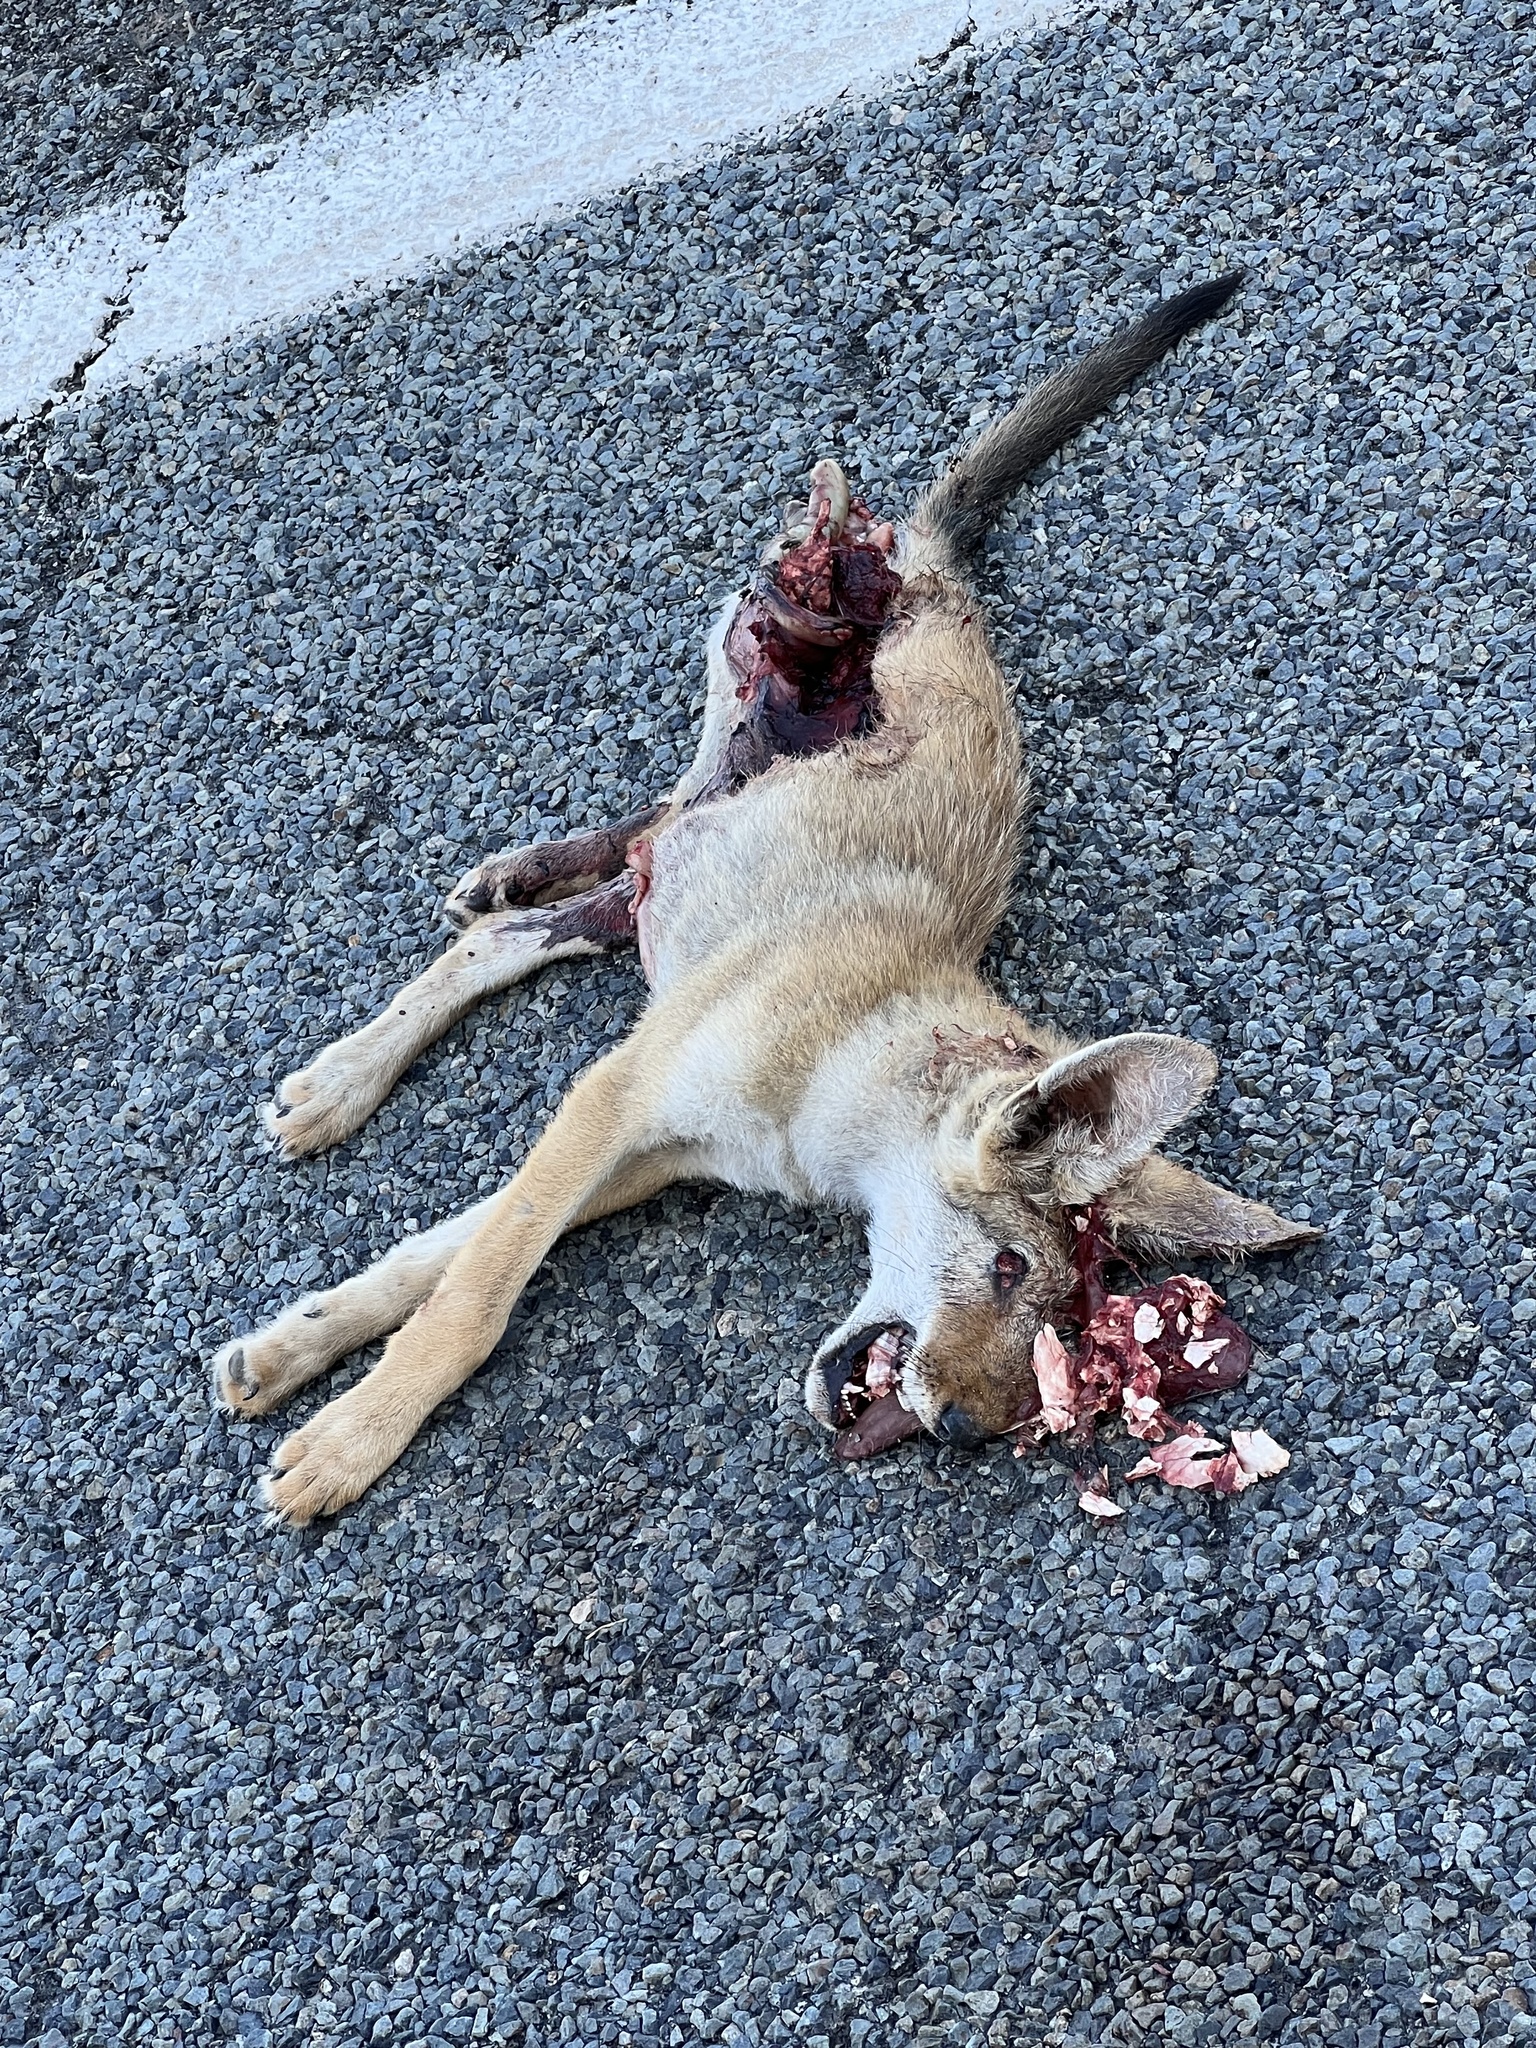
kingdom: Animalia
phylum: Chordata
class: Mammalia
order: Carnivora
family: Canidae
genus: Canis
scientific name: Canis latrans
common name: Coyote
